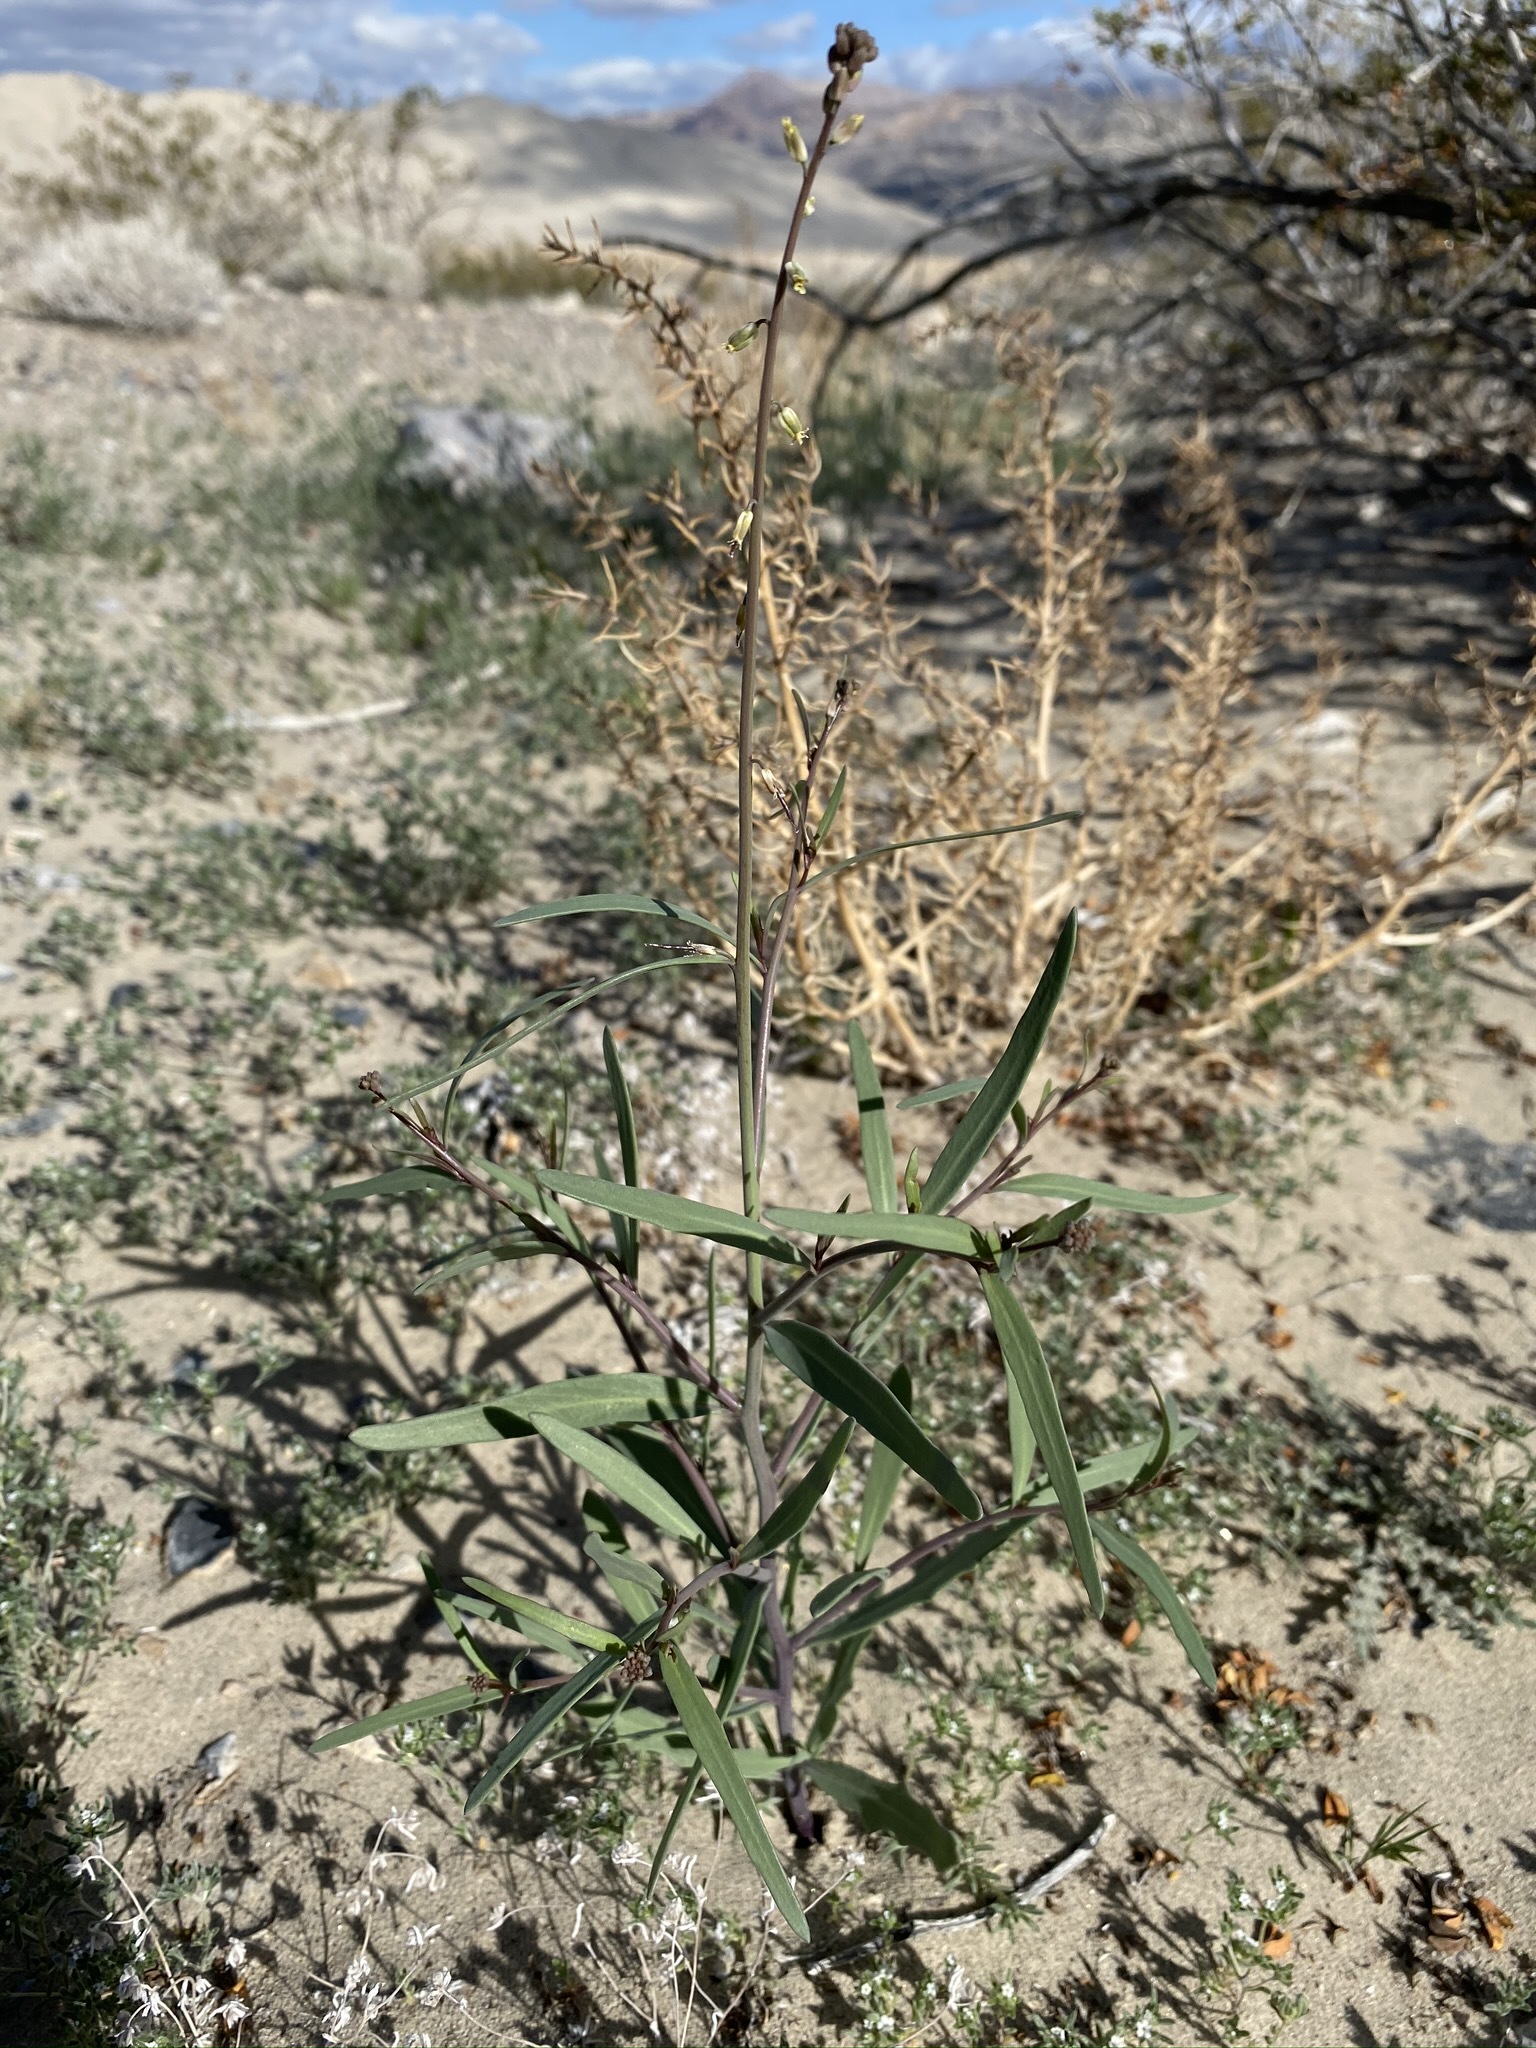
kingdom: Plantae
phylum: Tracheophyta
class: Magnoliopsida
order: Brassicales
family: Brassicaceae
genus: Streptanthus
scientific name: Streptanthus longirostris
